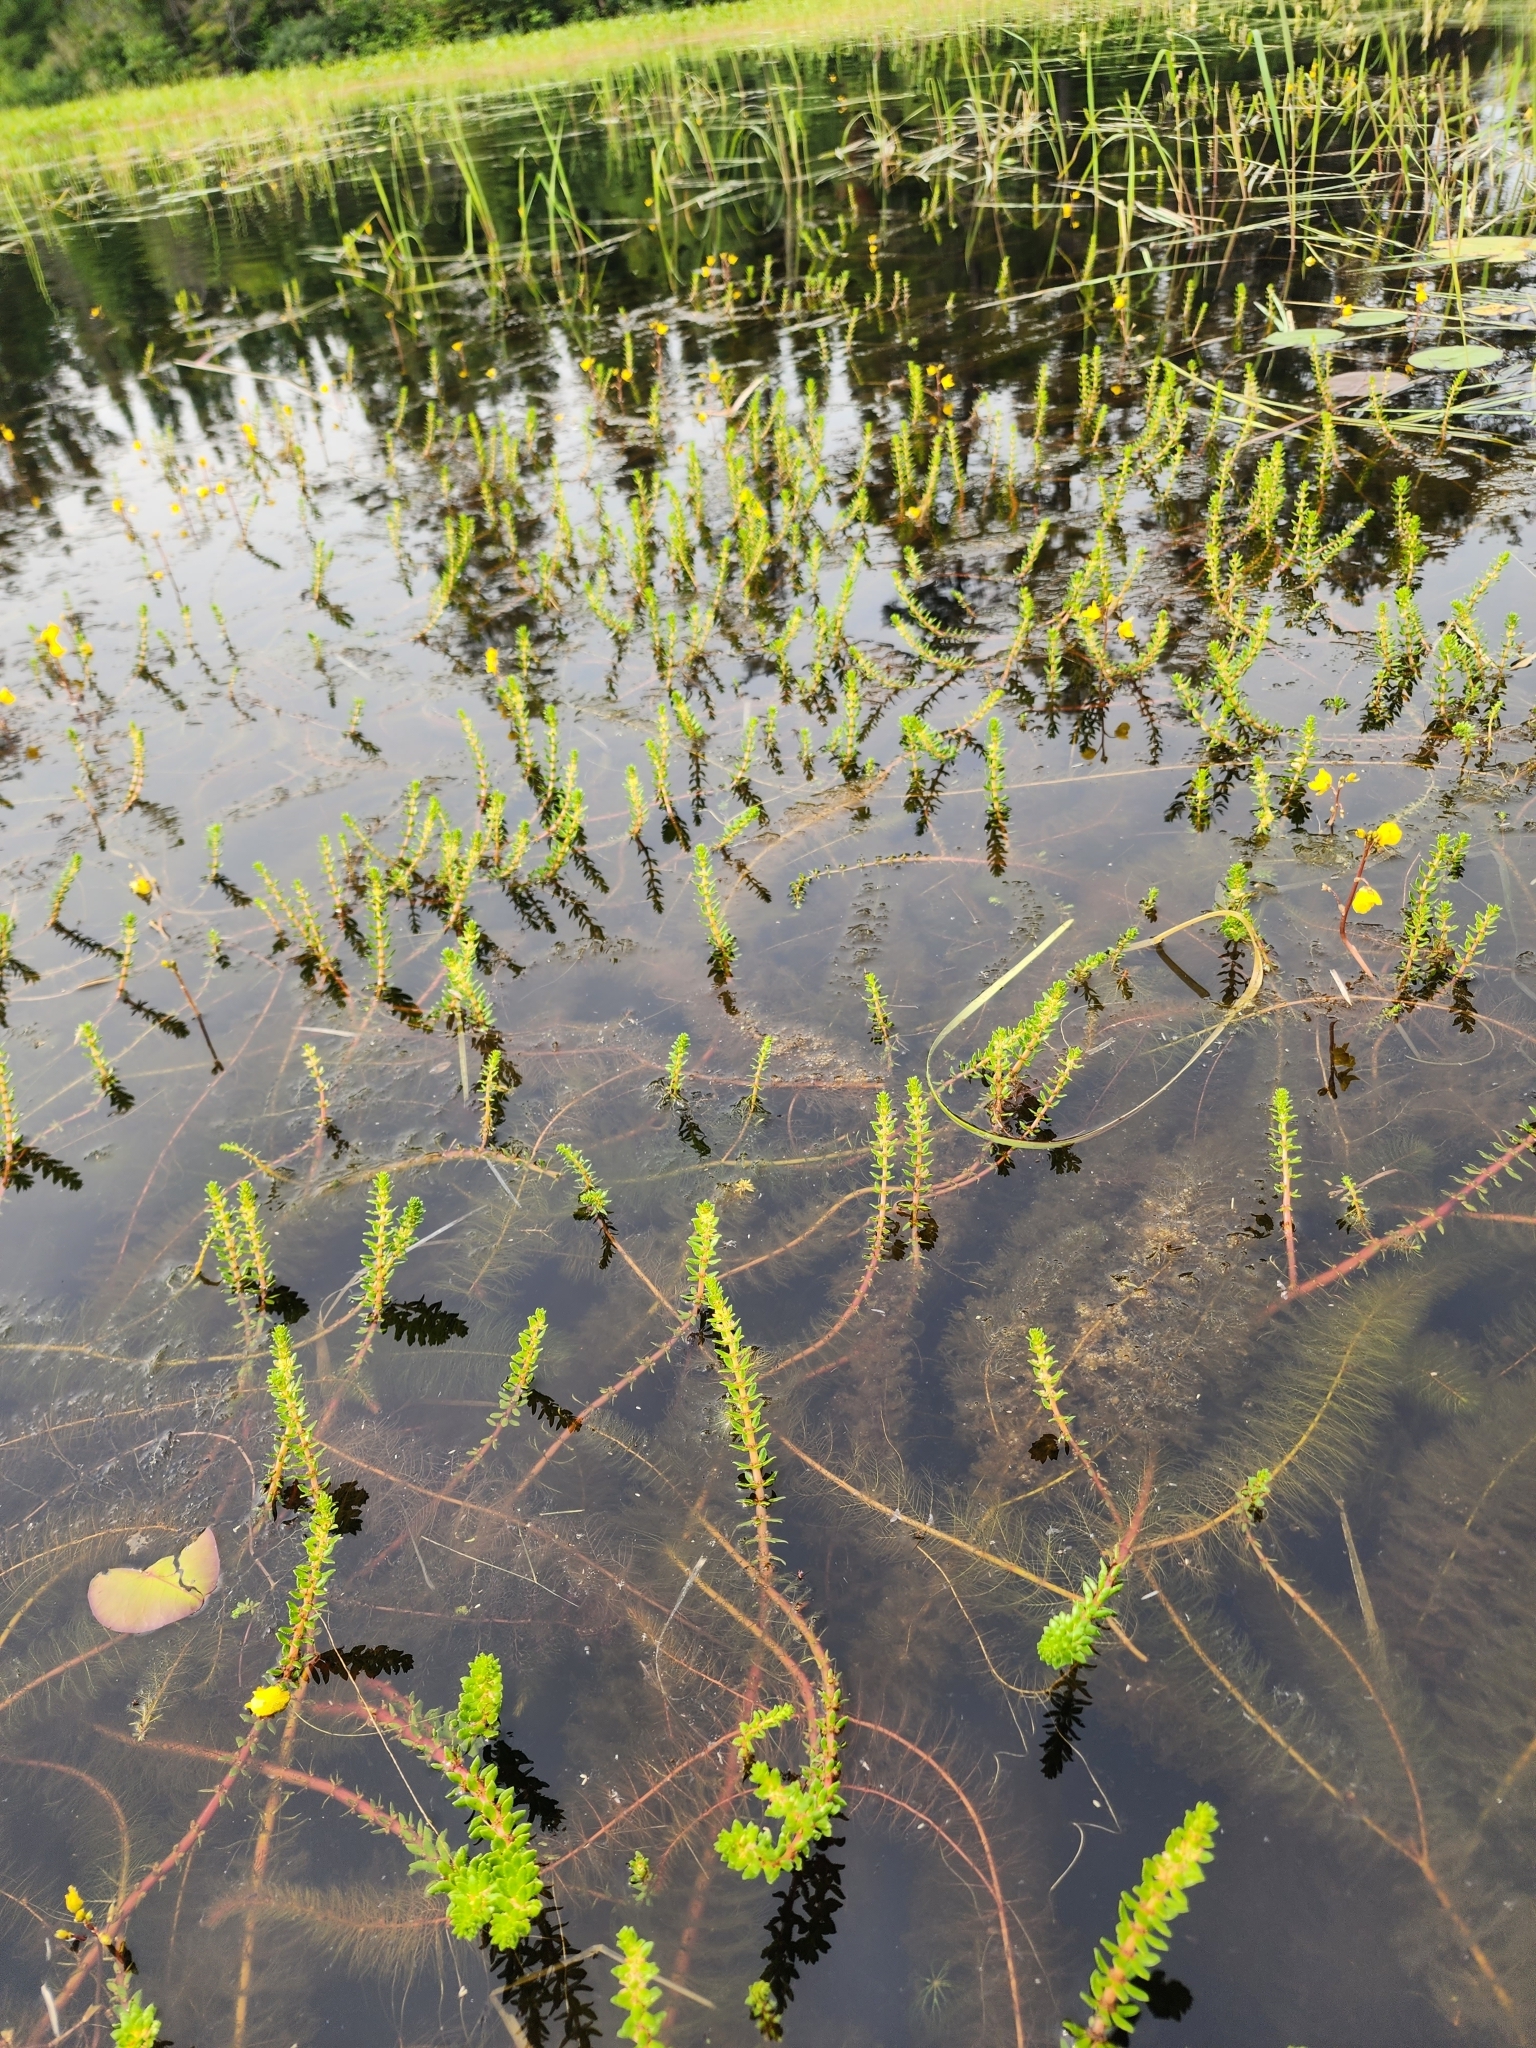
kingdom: Plantae
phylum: Tracheophyta
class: Magnoliopsida
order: Saxifragales
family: Haloragaceae
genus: Myriophyllum
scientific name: Myriophyllum heterophyllum
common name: Variable watermilfoil
